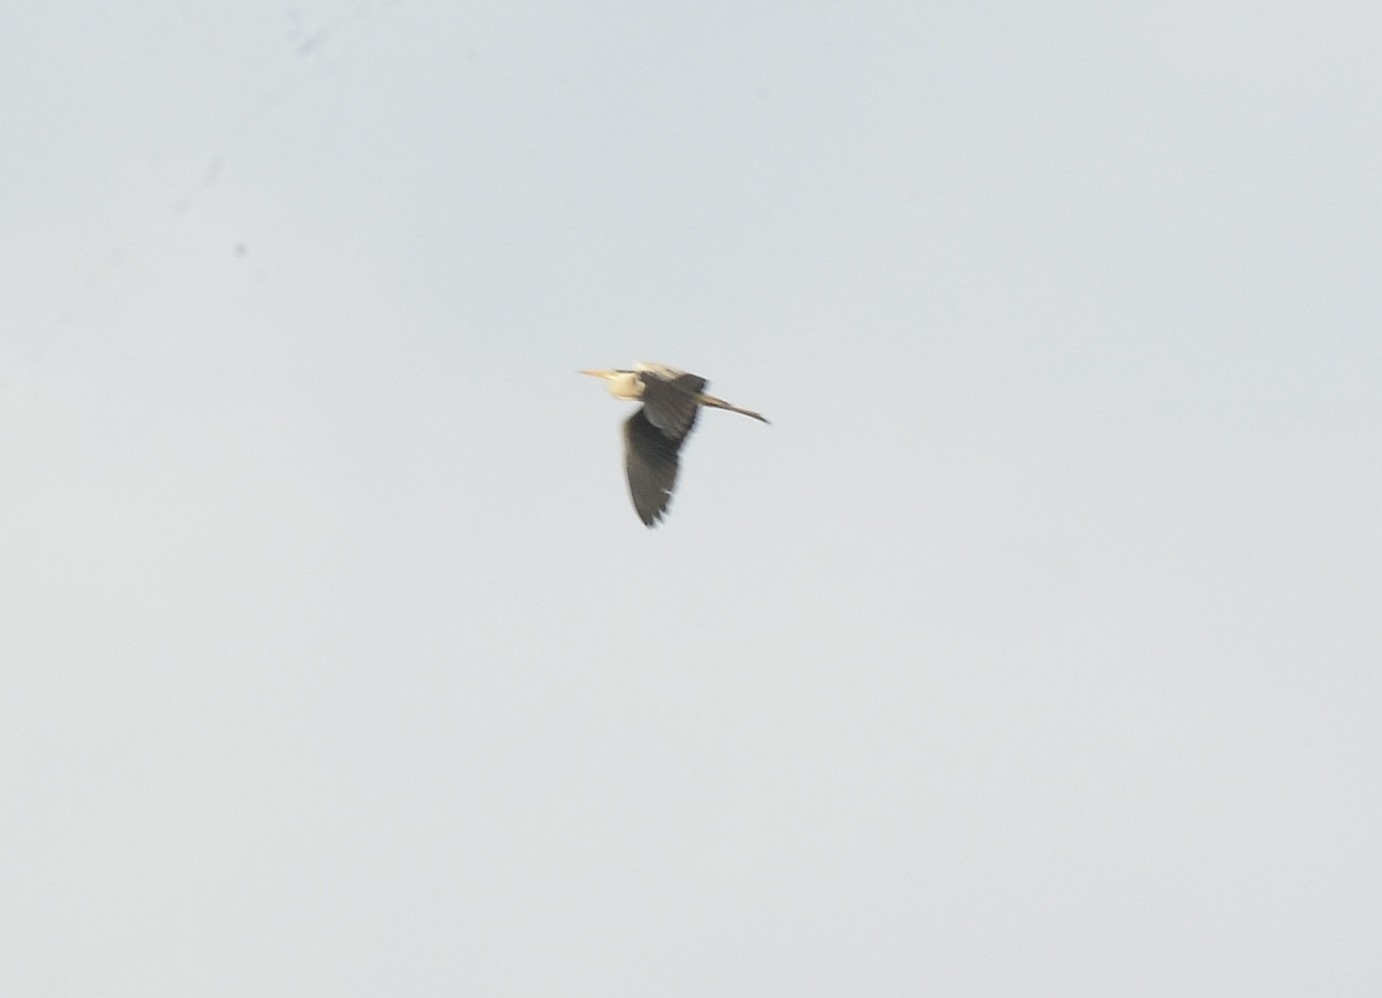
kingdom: Animalia
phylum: Chordata
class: Aves
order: Pelecaniformes
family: Ardeidae
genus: Ardea
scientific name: Ardea cinerea
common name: Grey heron
